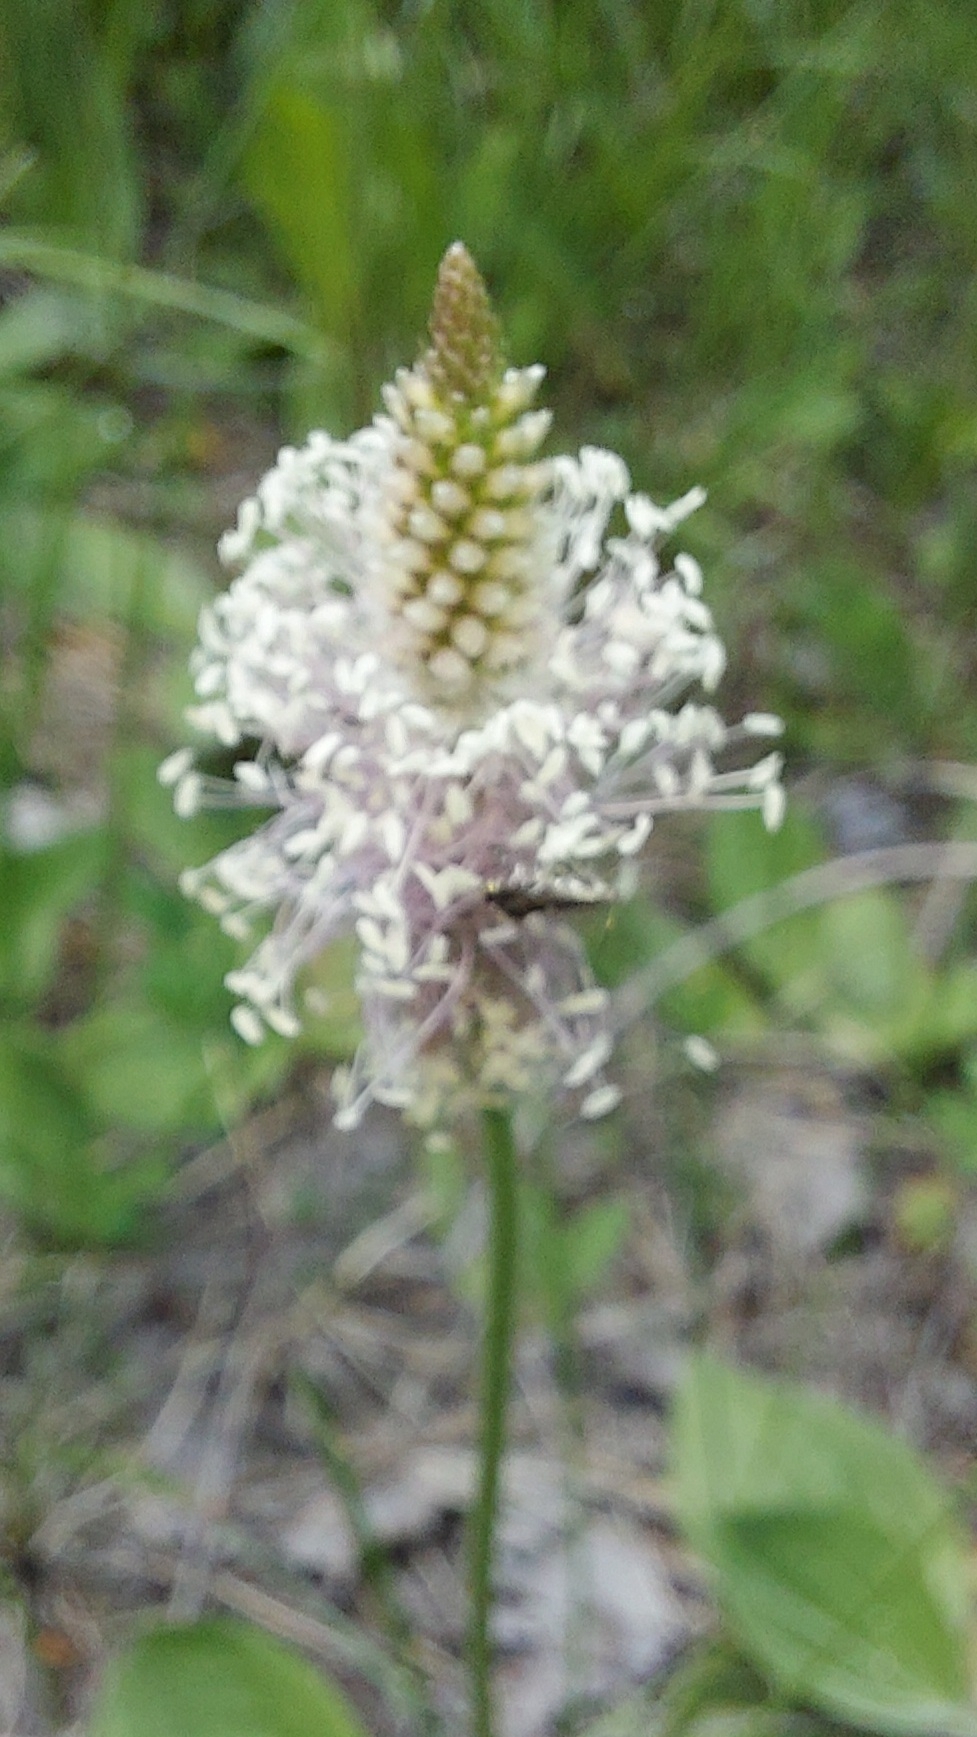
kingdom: Plantae
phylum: Tracheophyta
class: Magnoliopsida
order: Lamiales
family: Plantaginaceae
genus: Plantago
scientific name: Plantago media
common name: Hoary plantain
